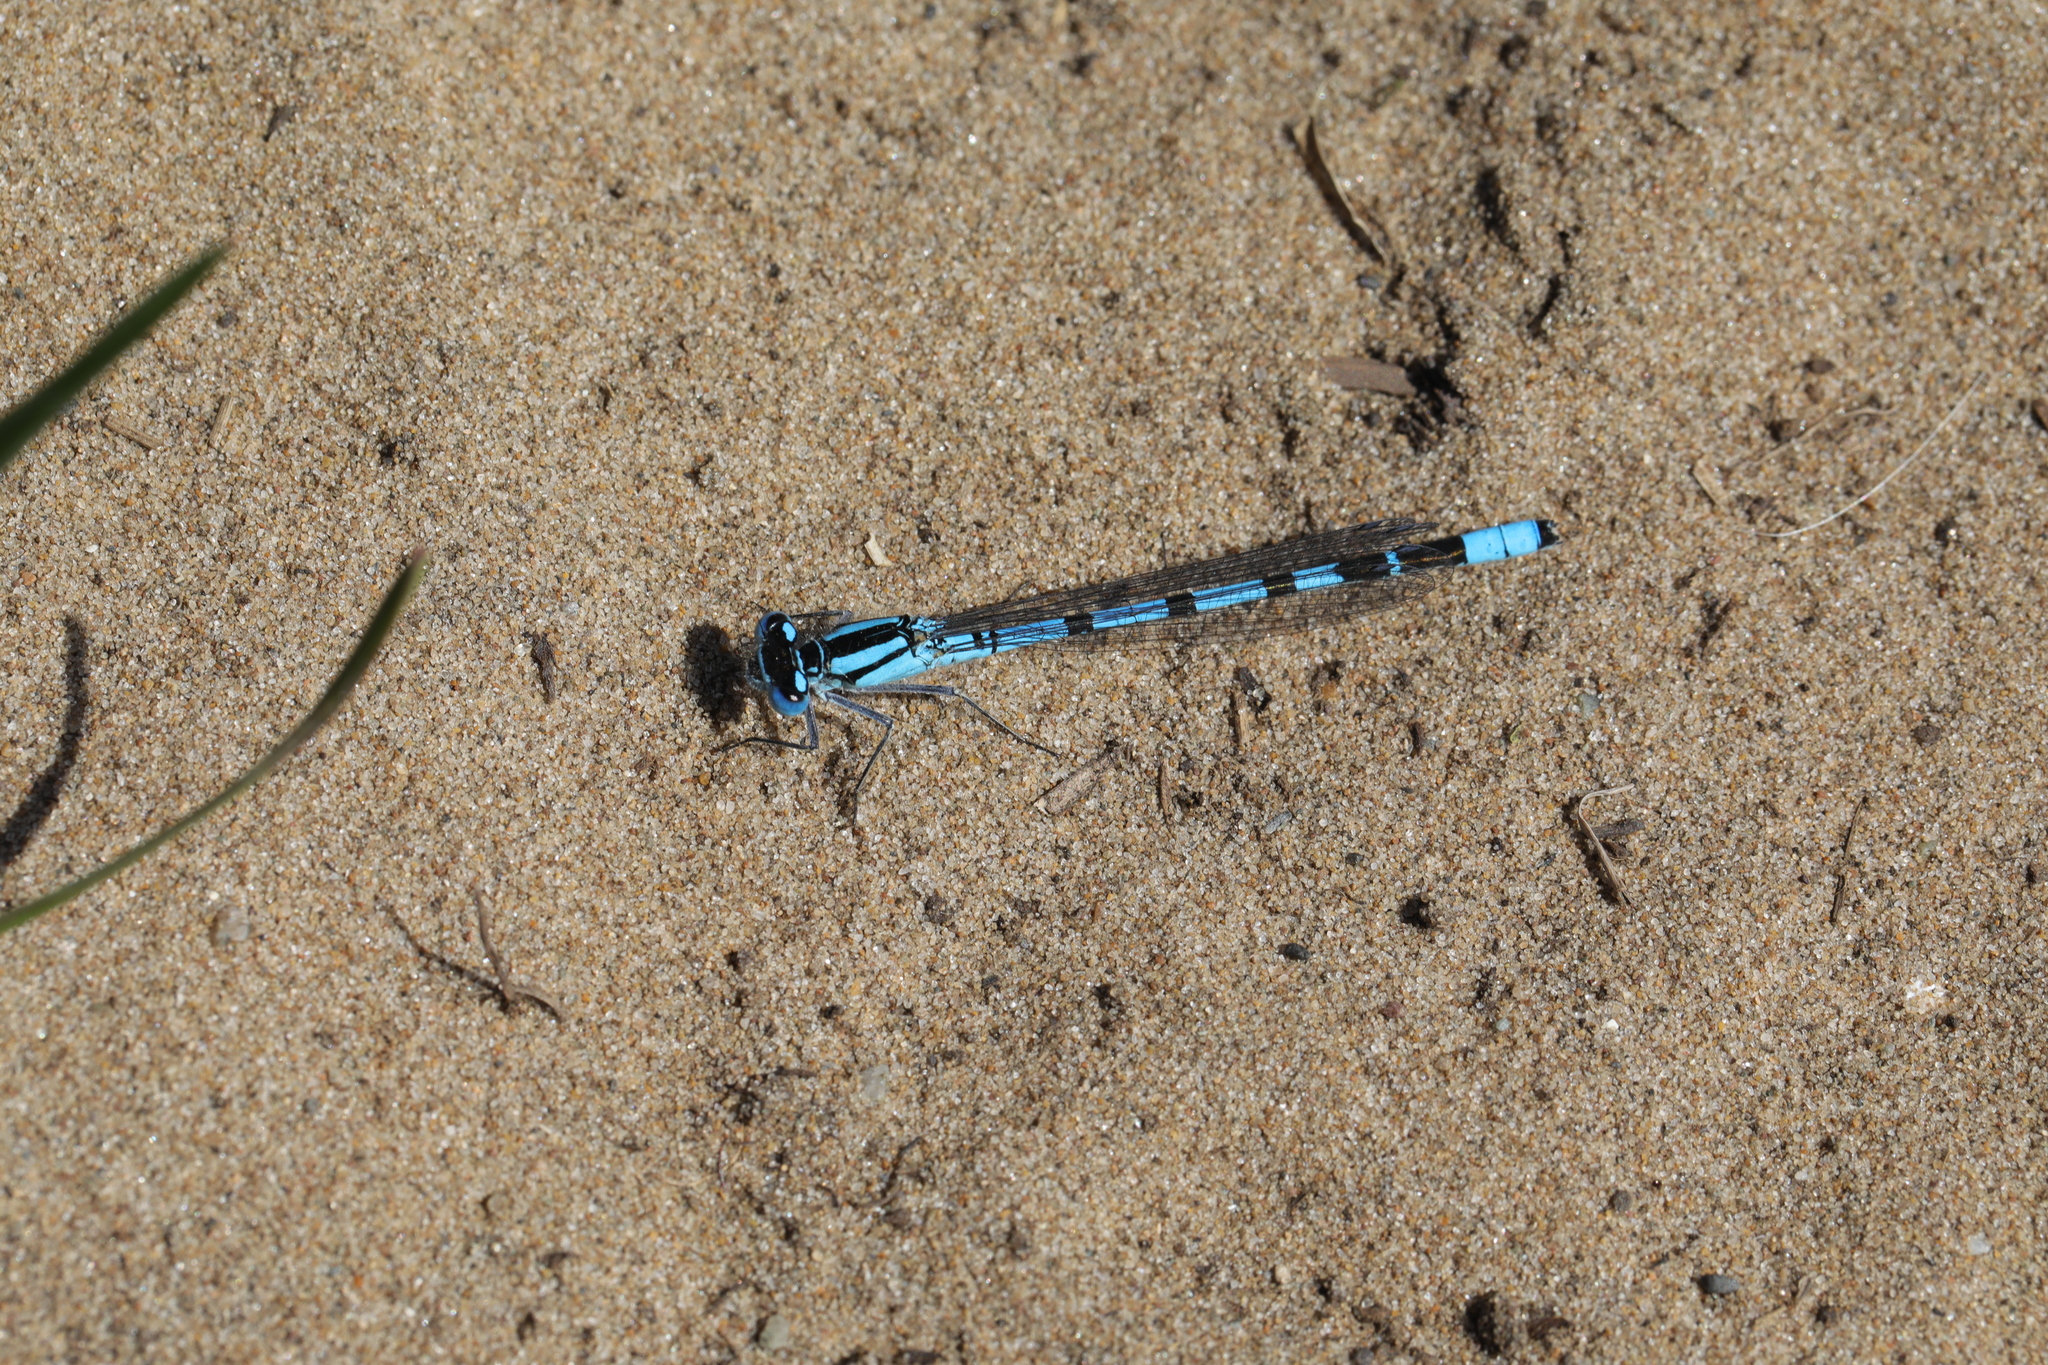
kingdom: Animalia
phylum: Arthropoda
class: Insecta
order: Odonata
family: Coenagrionidae
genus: Enallagma
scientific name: Enallagma cyathigerum
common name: Common blue damselfly
